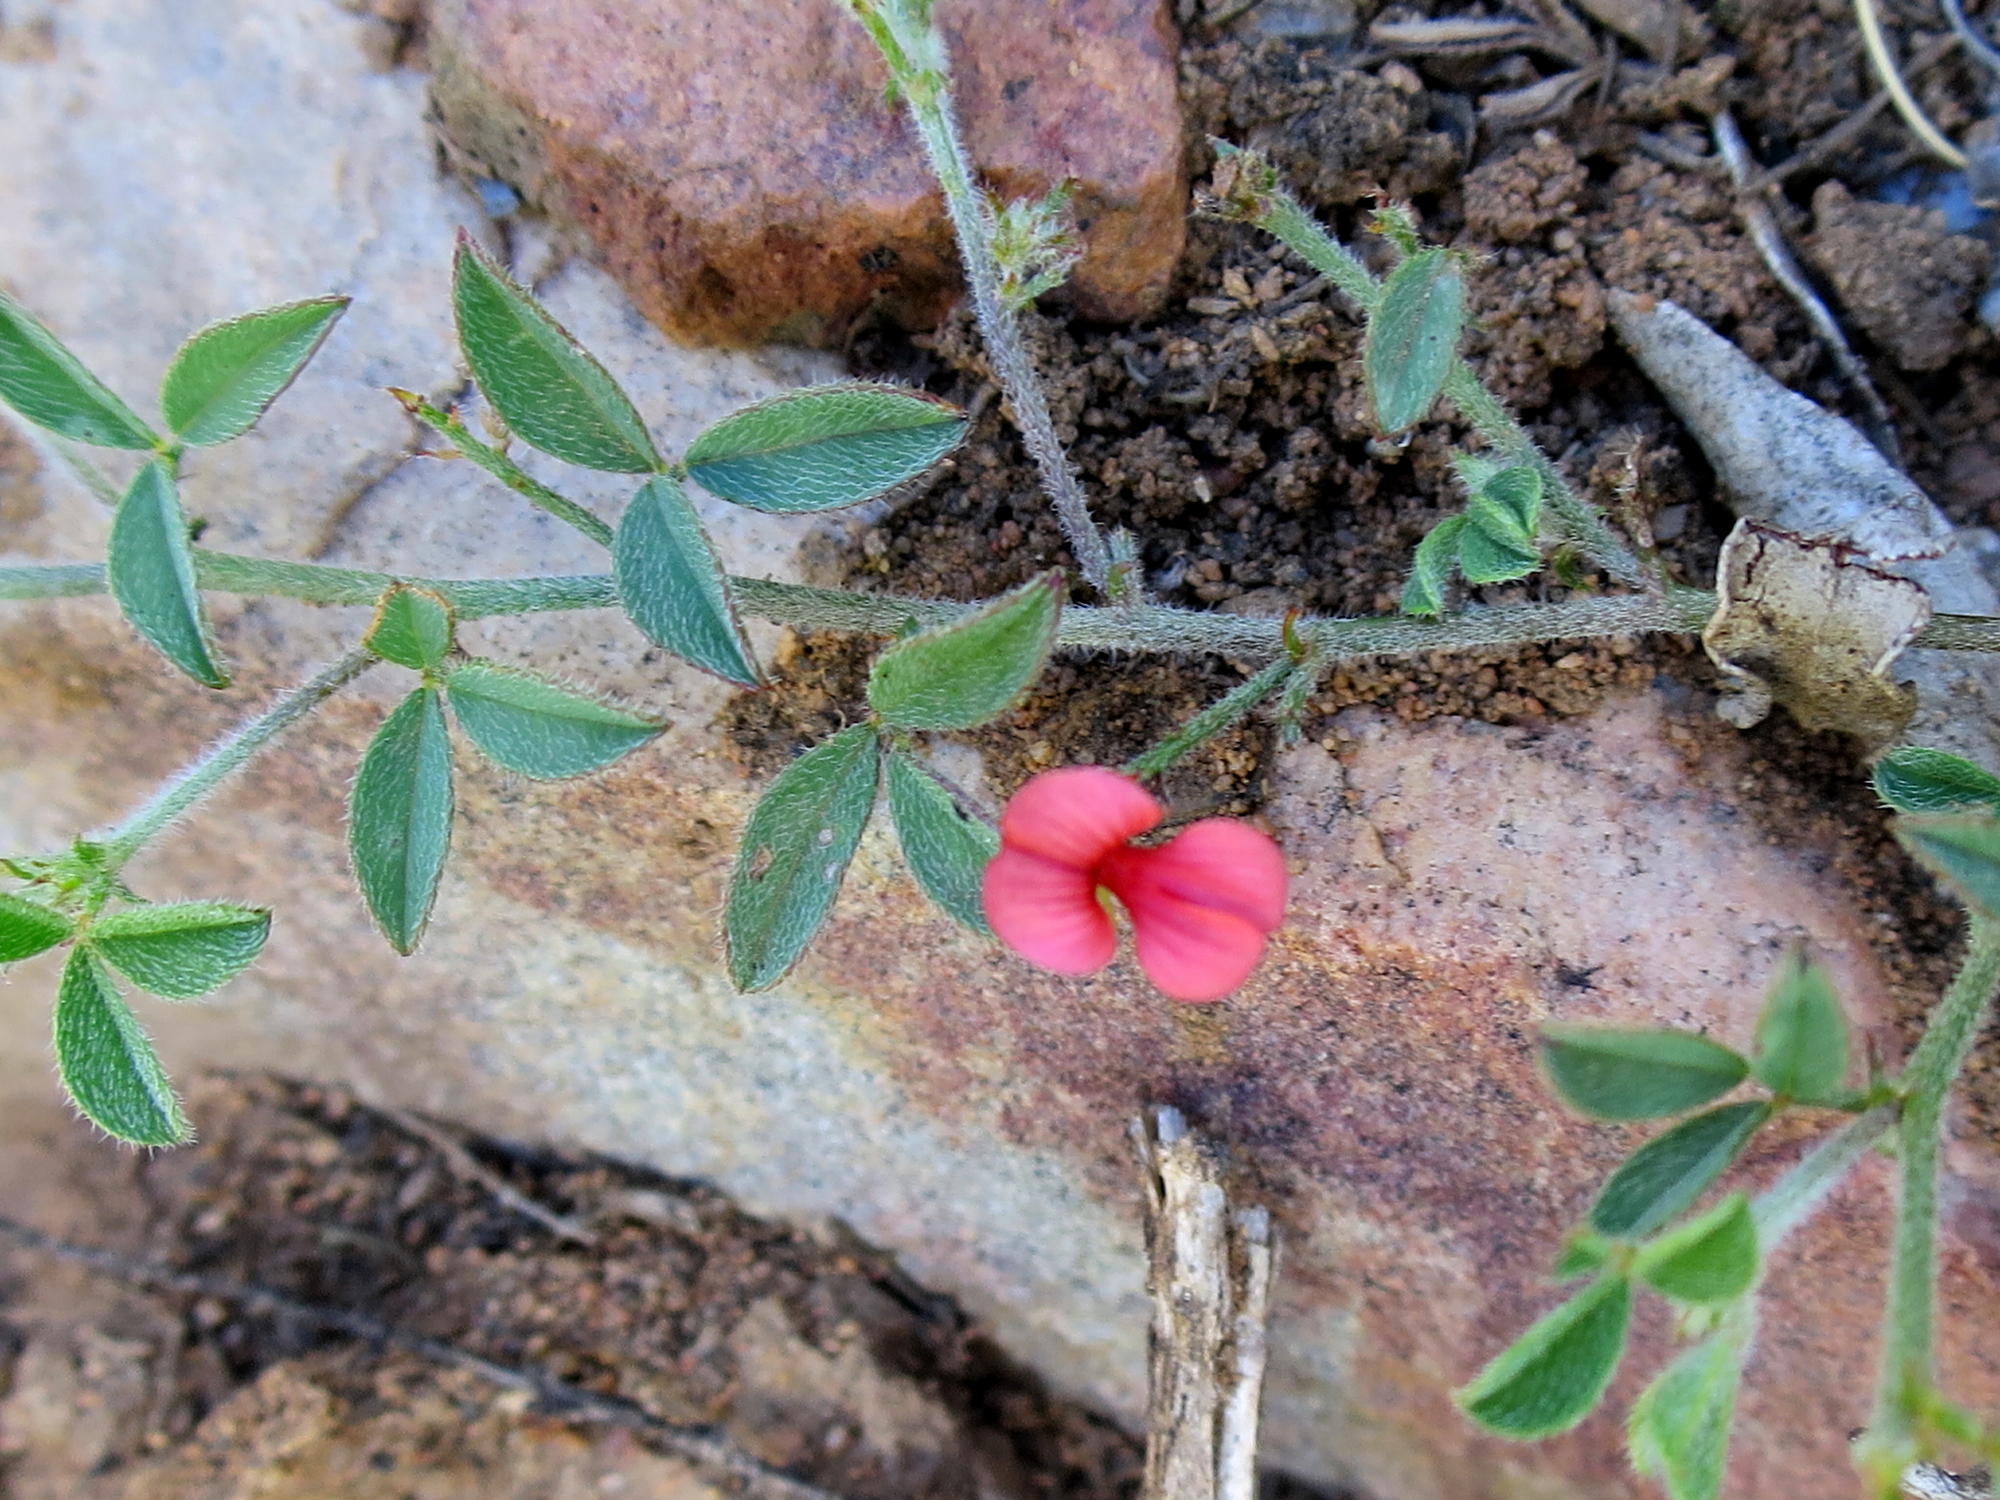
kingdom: Plantae
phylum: Tracheophyta
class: Magnoliopsida
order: Fabales
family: Fabaceae
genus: Indigofera
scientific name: Indigofera priorii
